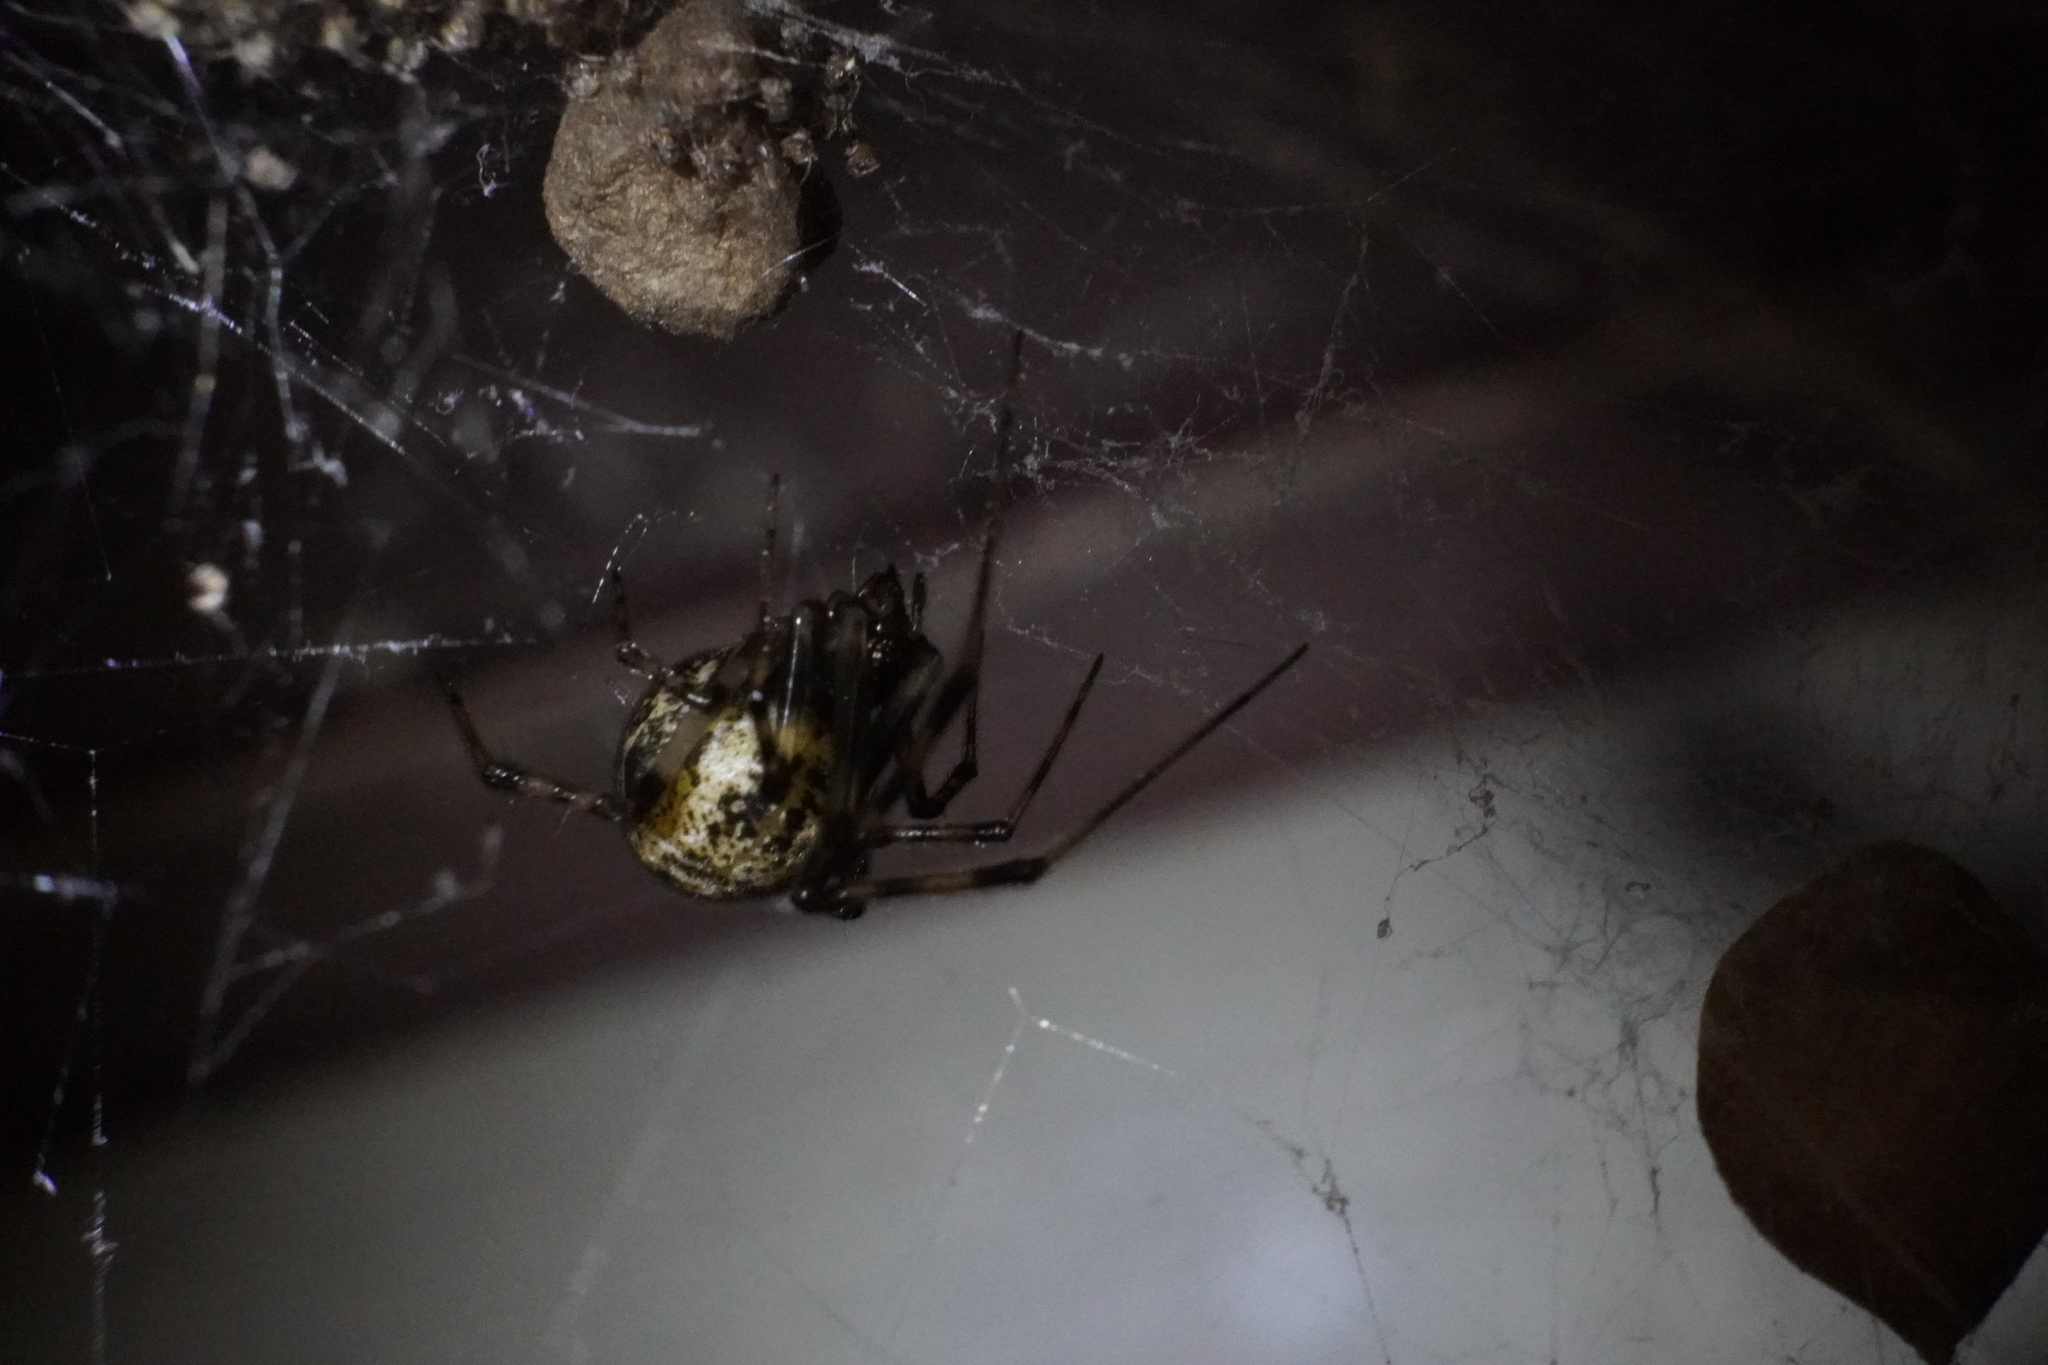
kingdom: Animalia
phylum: Arthropoda
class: Arachnida
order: Araneae
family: Theridiidae
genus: Parasteatoda
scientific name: Parasteatoda tepidariorum
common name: Common house spider
